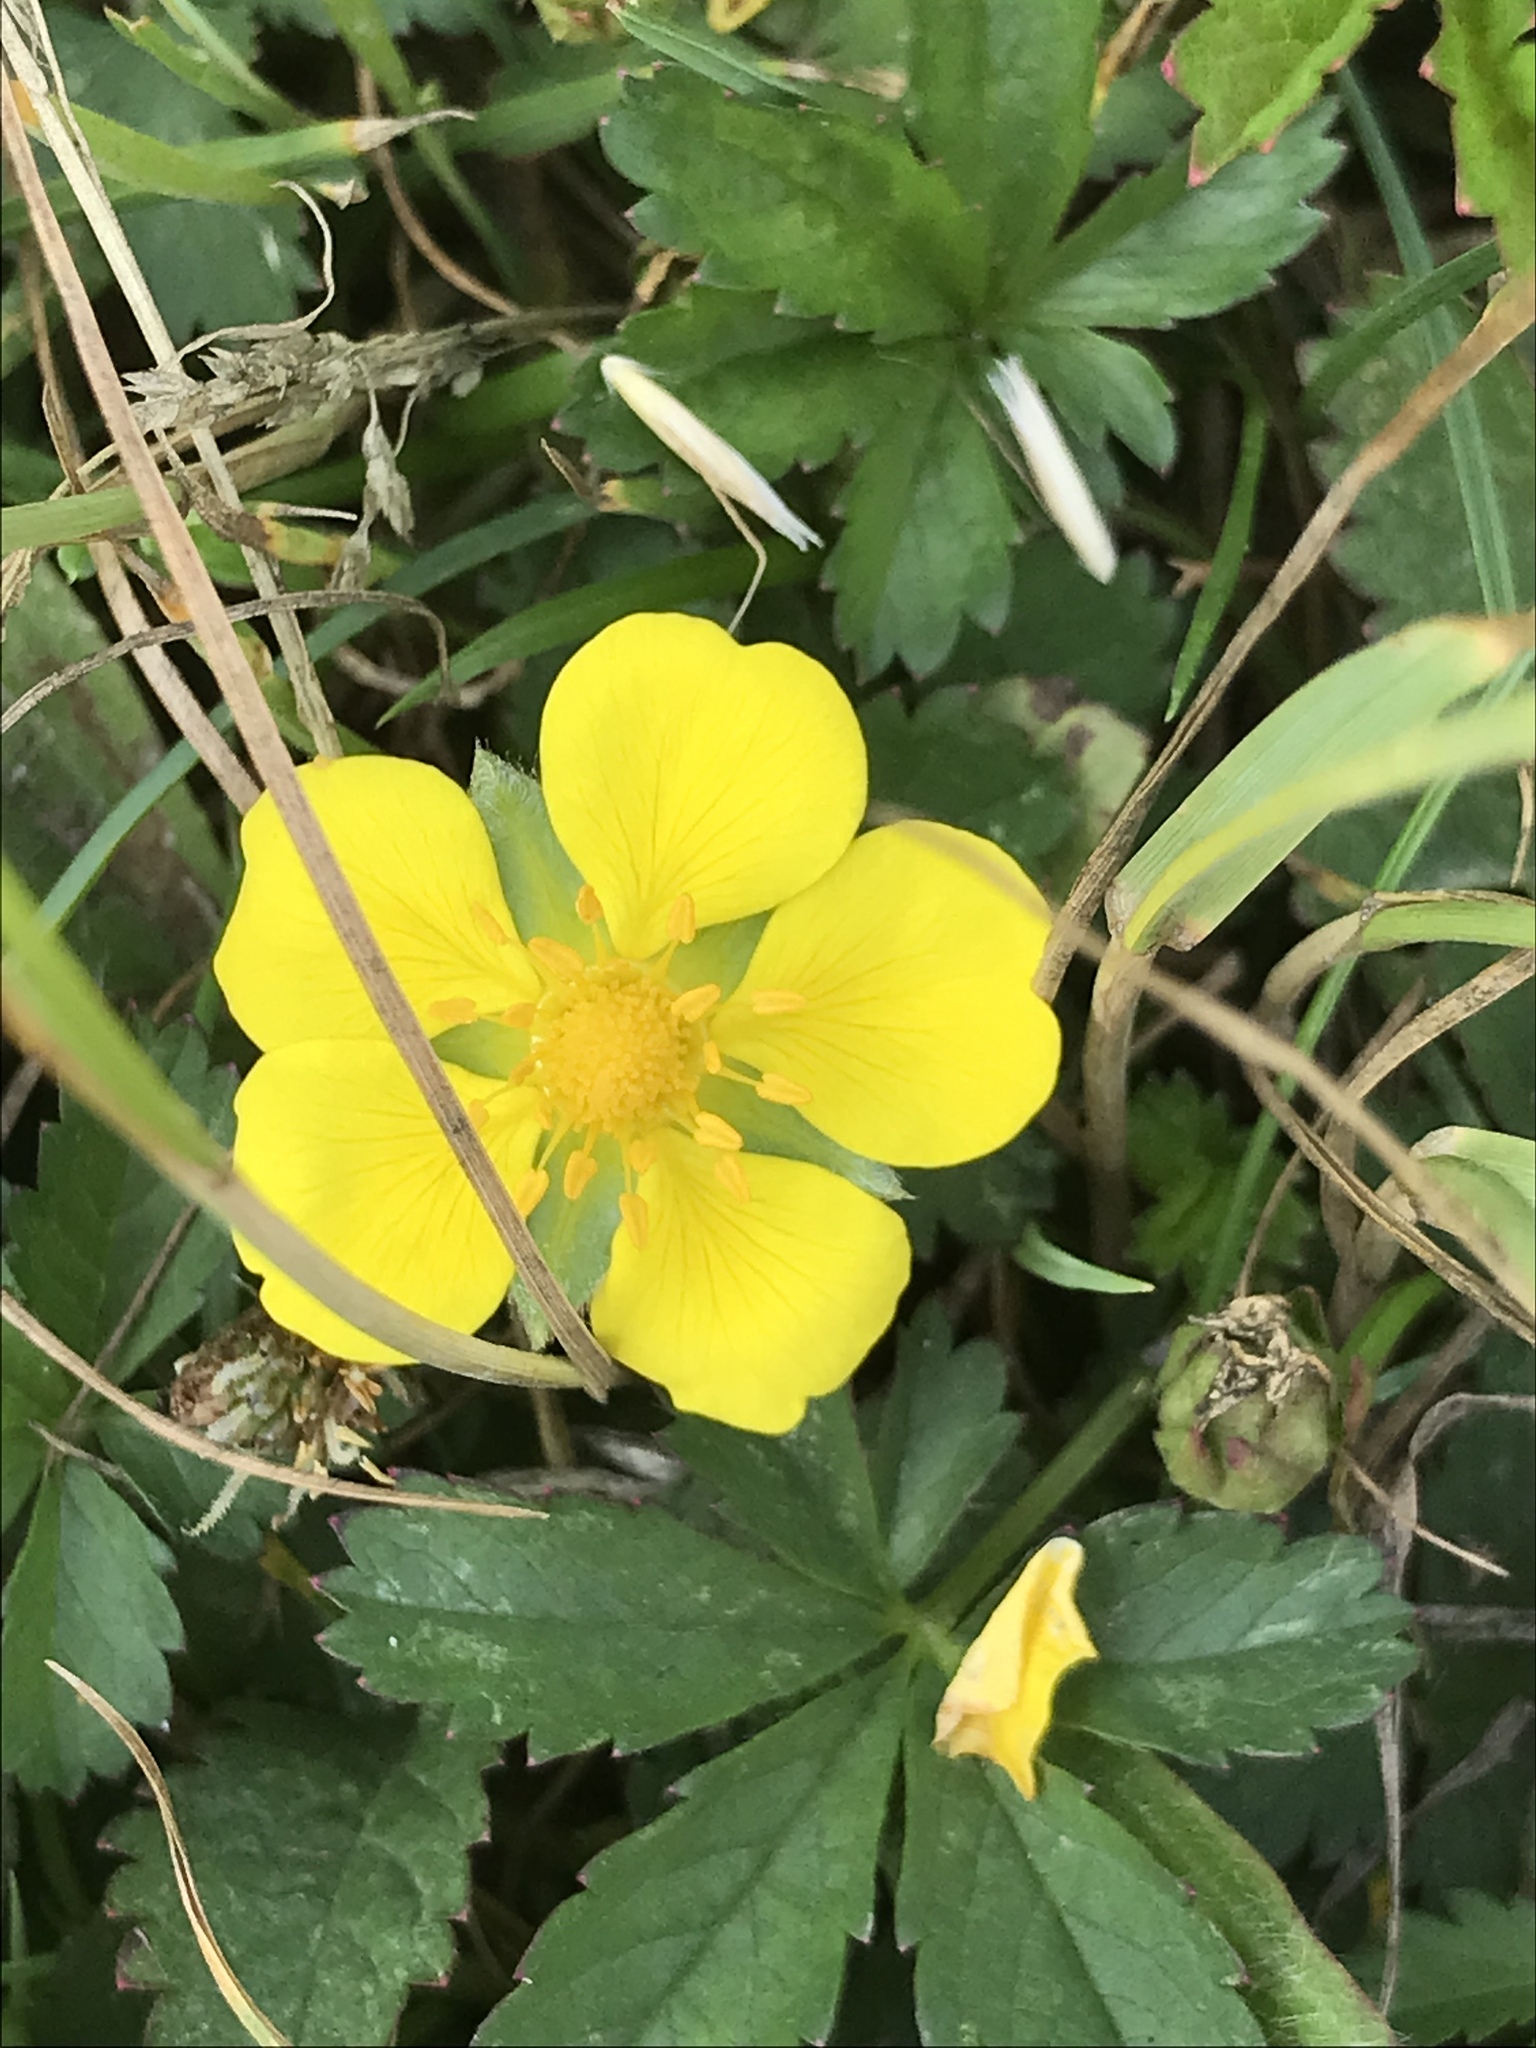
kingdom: Plantae
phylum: Tracheophyta
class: Magnoliopsida
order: Rosales
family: Rosaceae
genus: Potentilla
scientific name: Potentilla reptans
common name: Creeping cinquefoil
